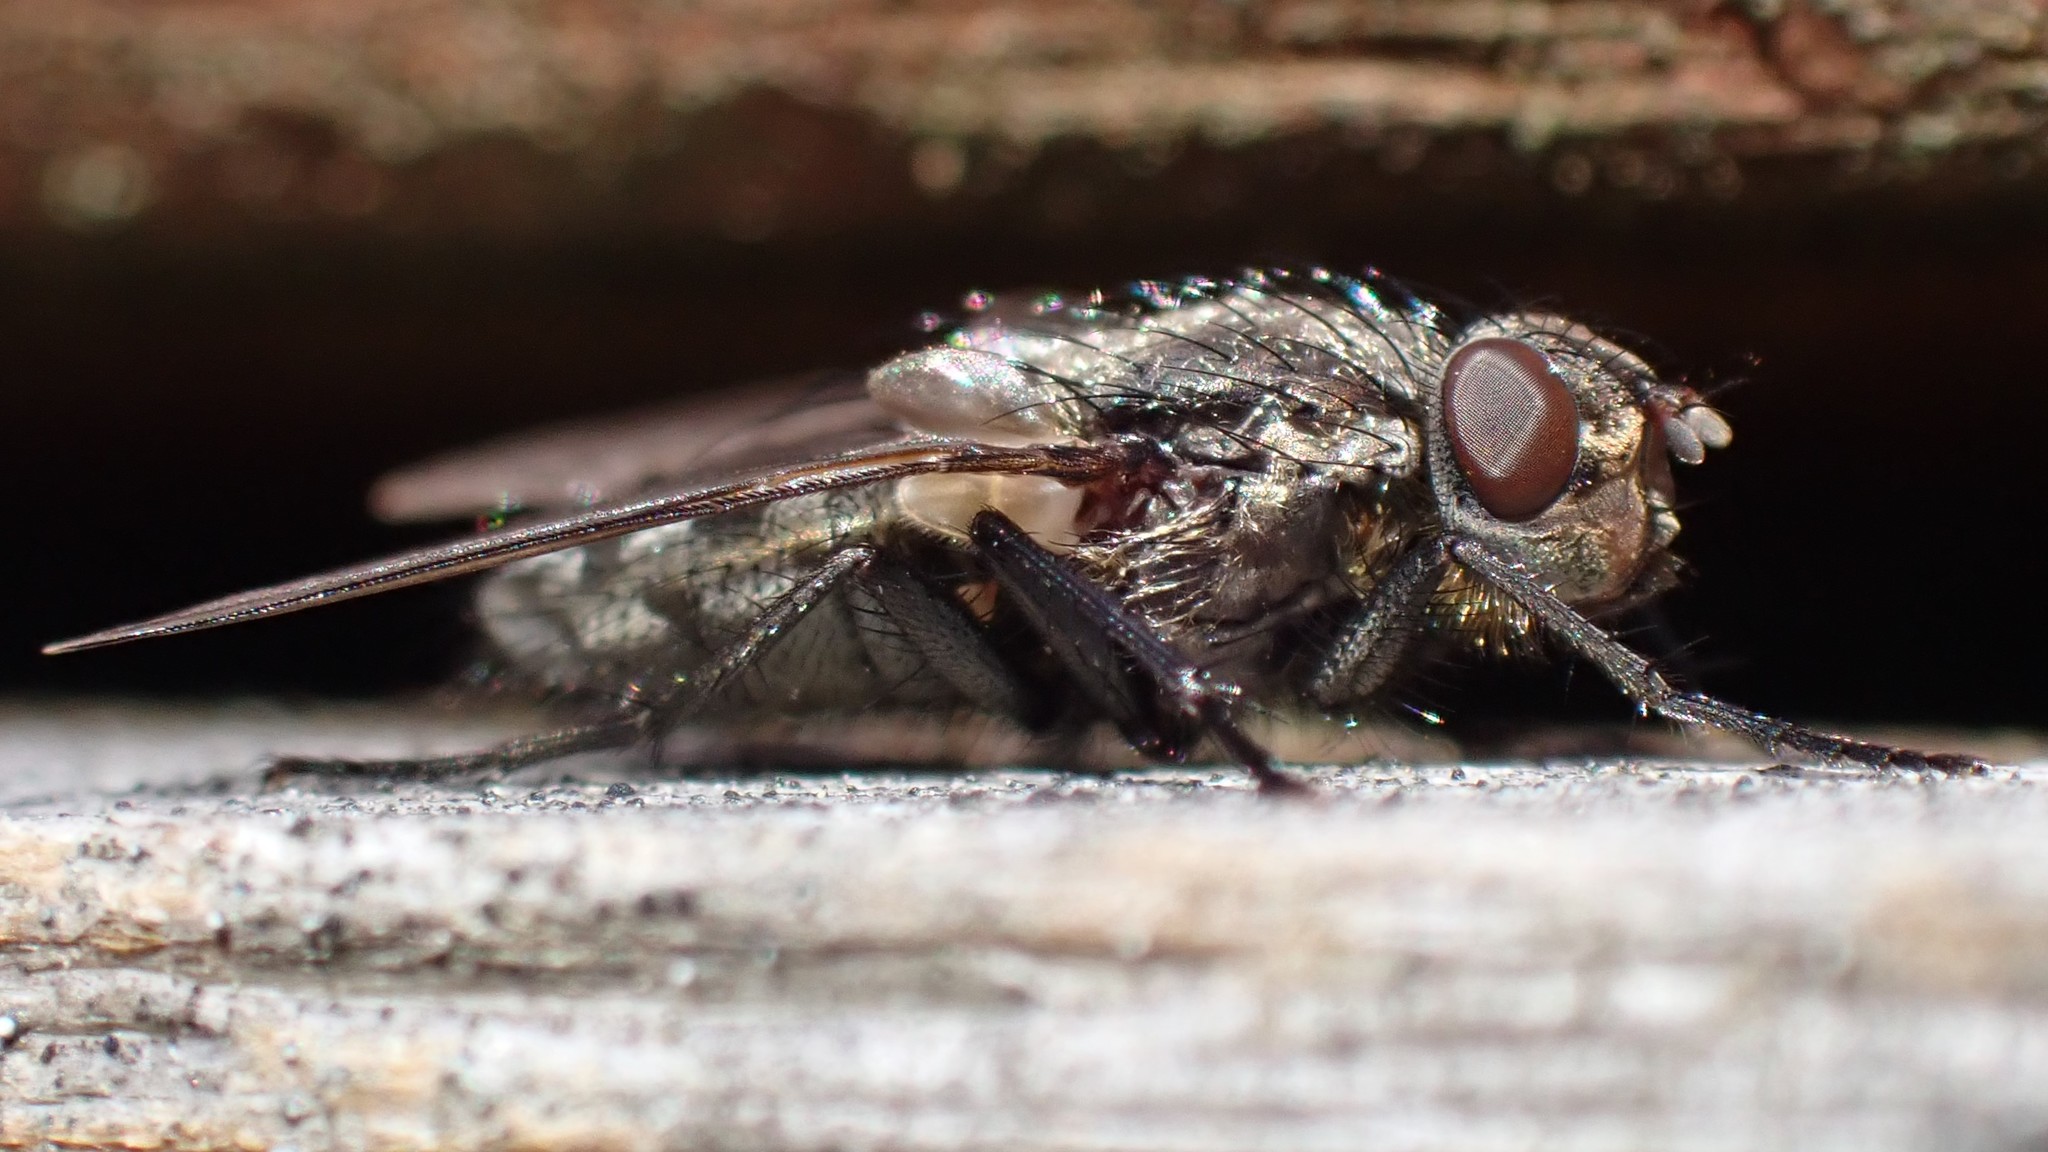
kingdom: Animalia
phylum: Arthropoda
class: Insecta
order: Diptera
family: Polleniidae
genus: Pollenia
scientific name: Pollenia vagabunda
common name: Vagabund cluster fly
